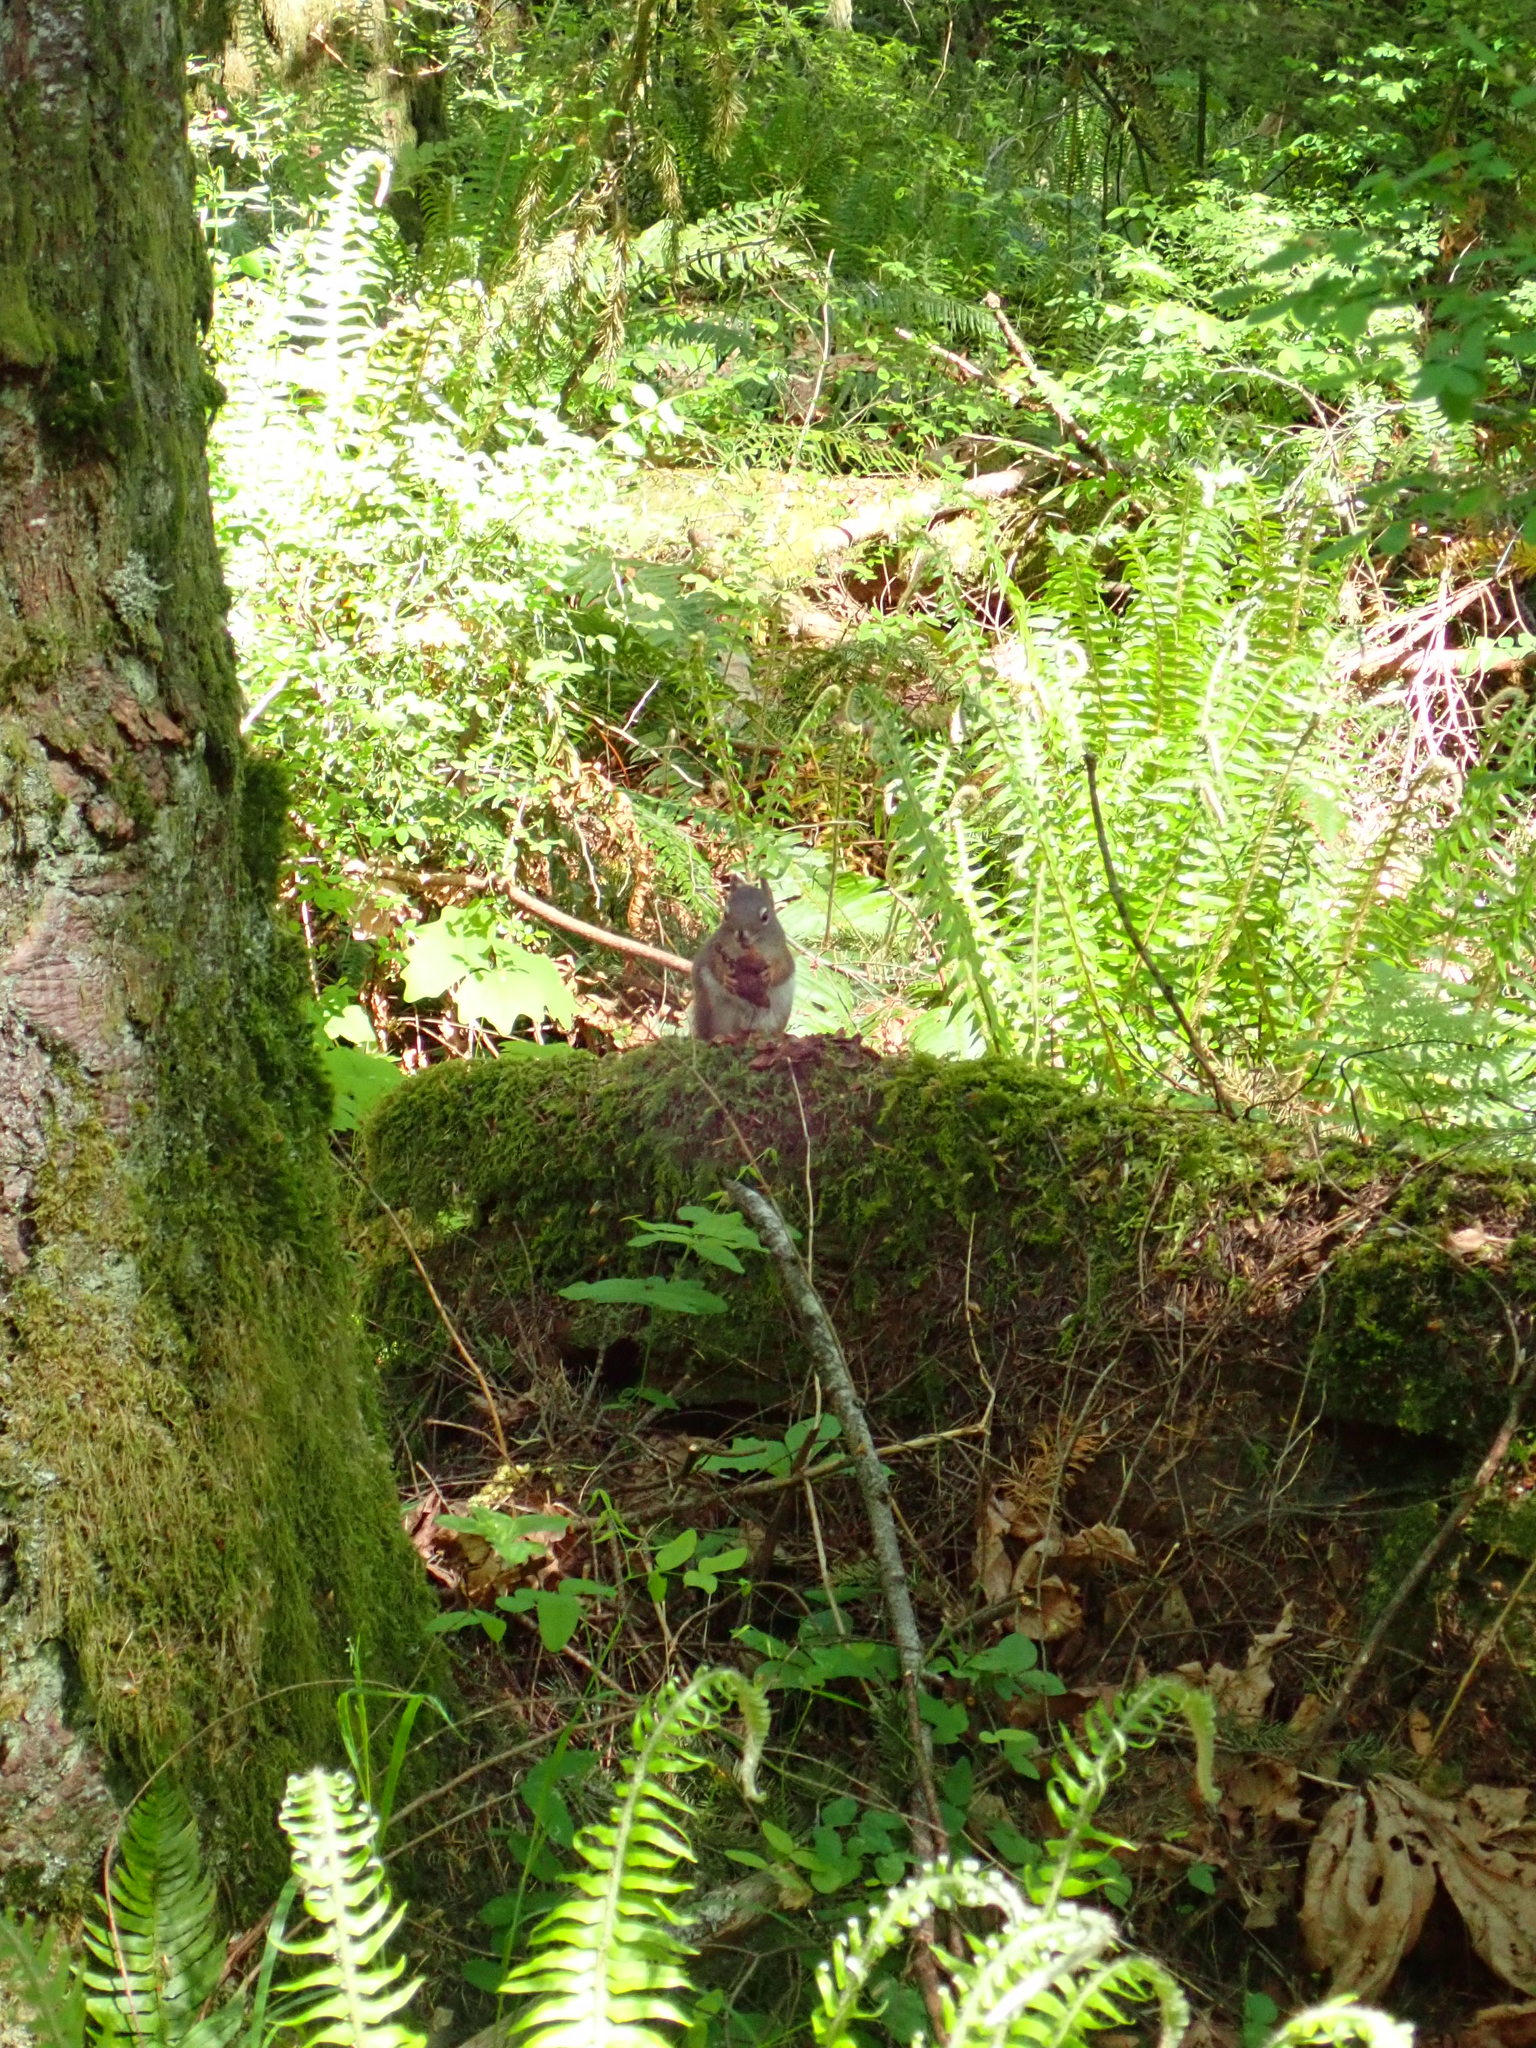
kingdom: Animalia
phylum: Chordata
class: Mammalia
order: Rodentia
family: Sciuridae
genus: Tamiasciurus
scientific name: Tamiasciurus hudsonicus
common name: Red squirrel
